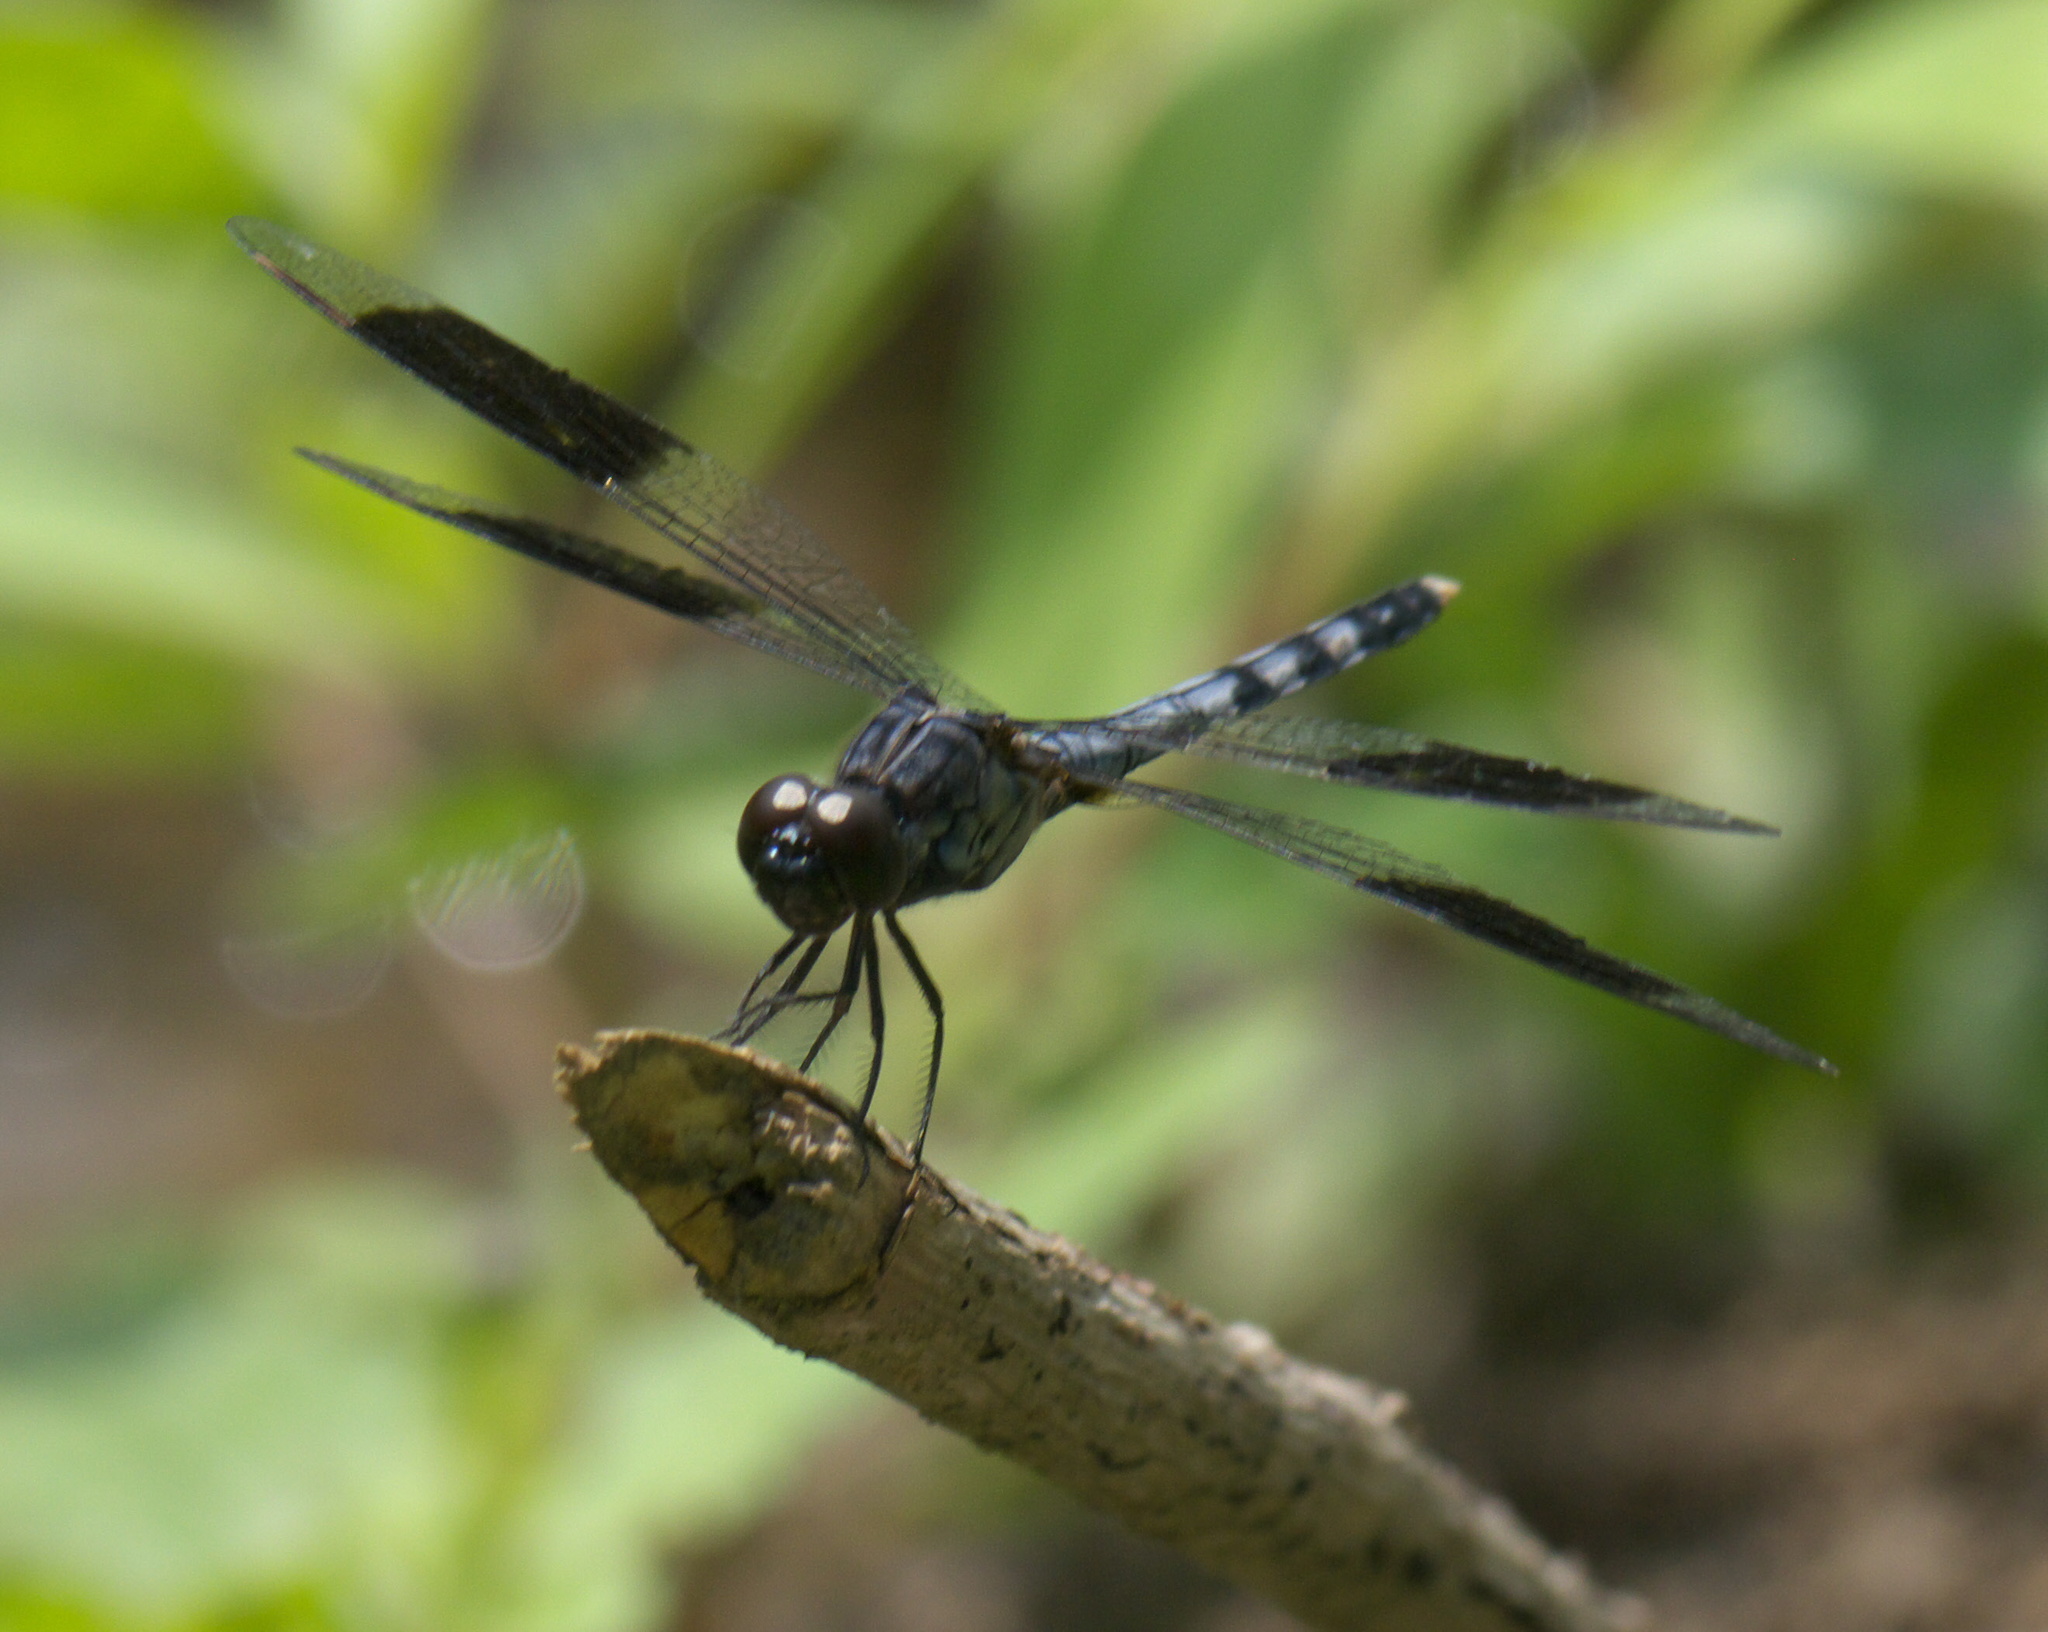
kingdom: Animalia
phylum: Arthropoda
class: Insecta
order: Odonata
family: Libellulidae
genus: Erythrodiplax
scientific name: Erythrodiplax umbrata
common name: Band-winged dragonlet
